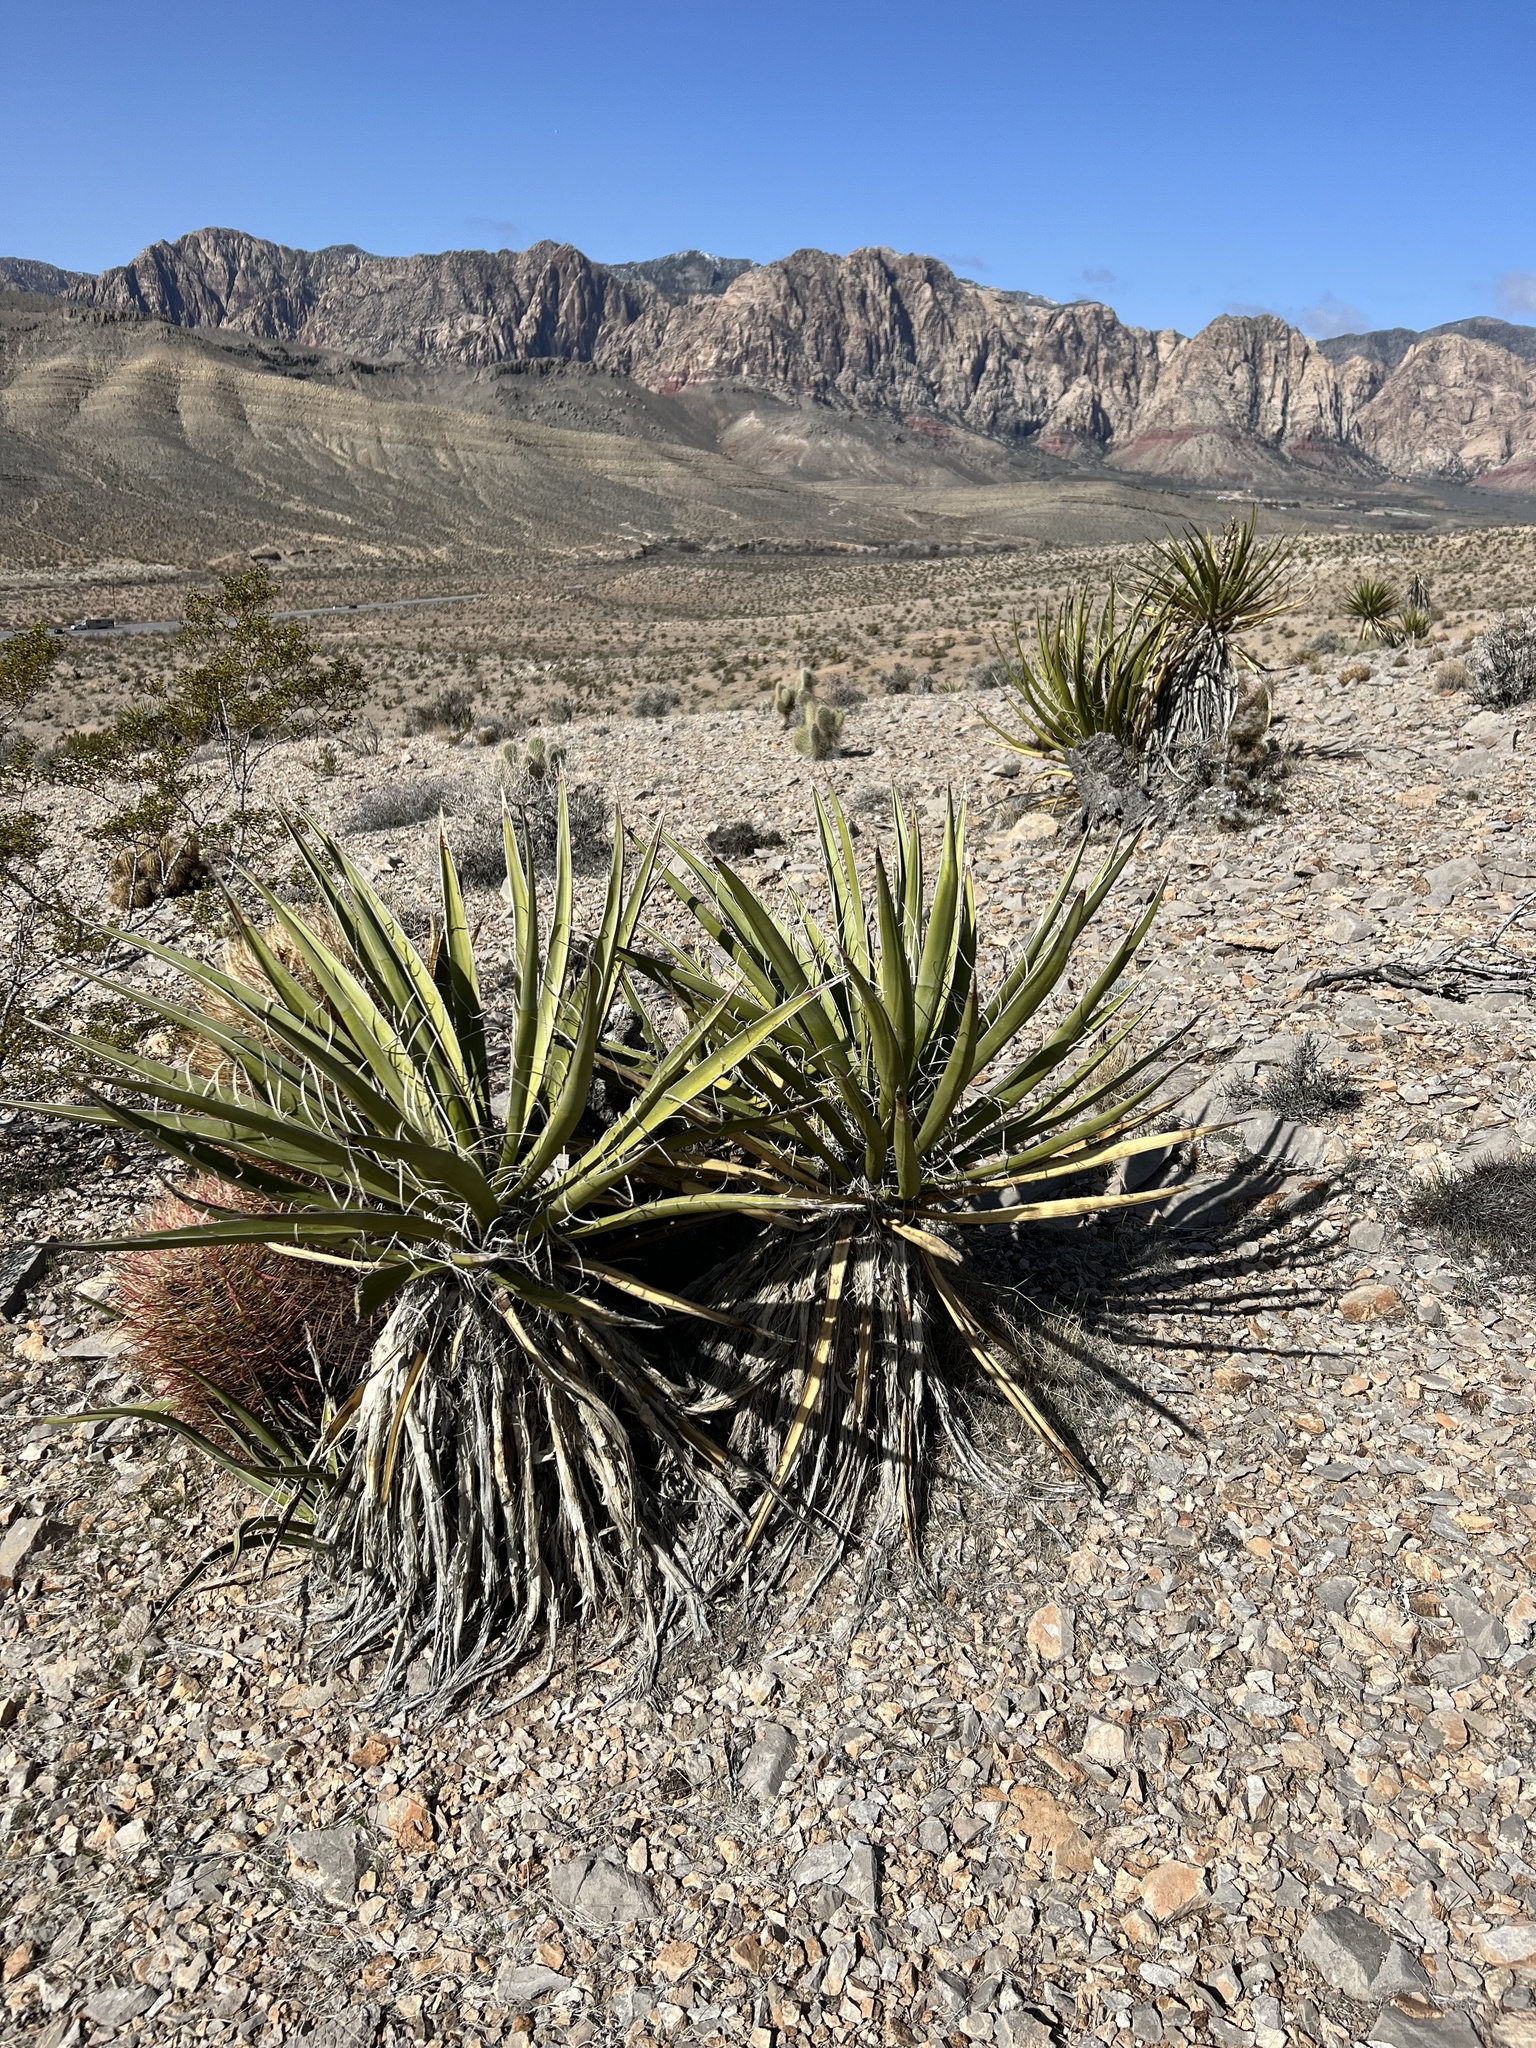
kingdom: Plantae
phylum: Tracheophyta
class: Liliopsida
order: Asparagales
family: Asparagaceae
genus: Yucca
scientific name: Yucca schidigera
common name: Mojave yucca
